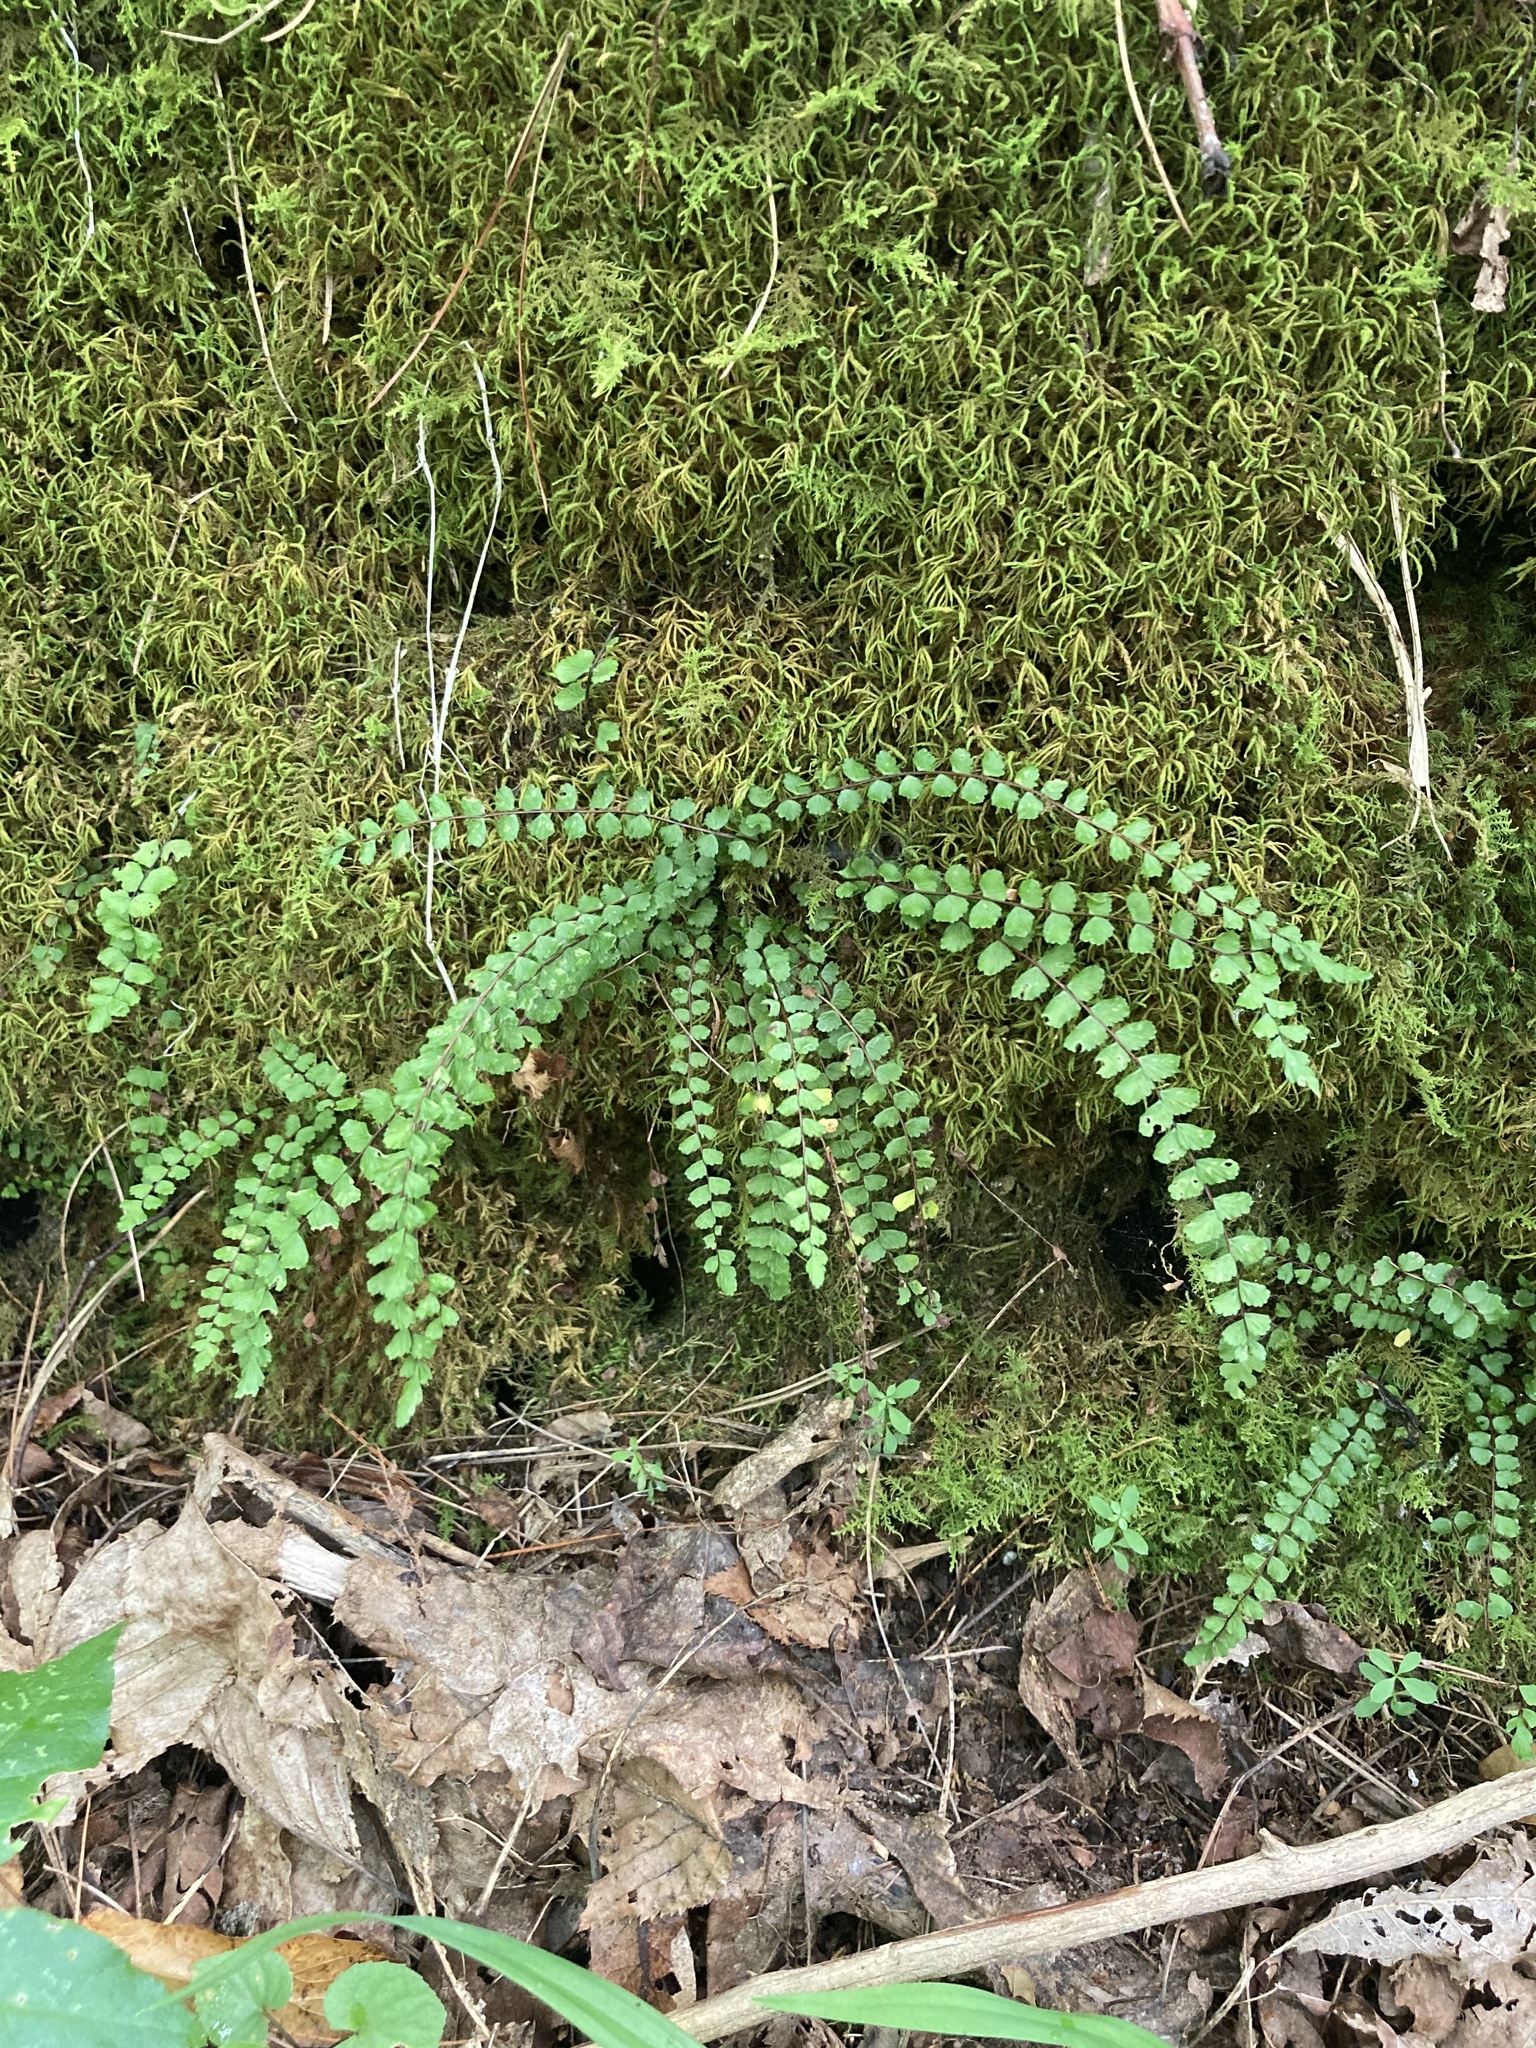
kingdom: Plantae
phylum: Tracheophyta
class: Polypodiopsida
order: Polypodiales
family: Aspleniaceae
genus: Asplenium
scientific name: Asplenium trichomanes
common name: Maidenhair spleenwort
